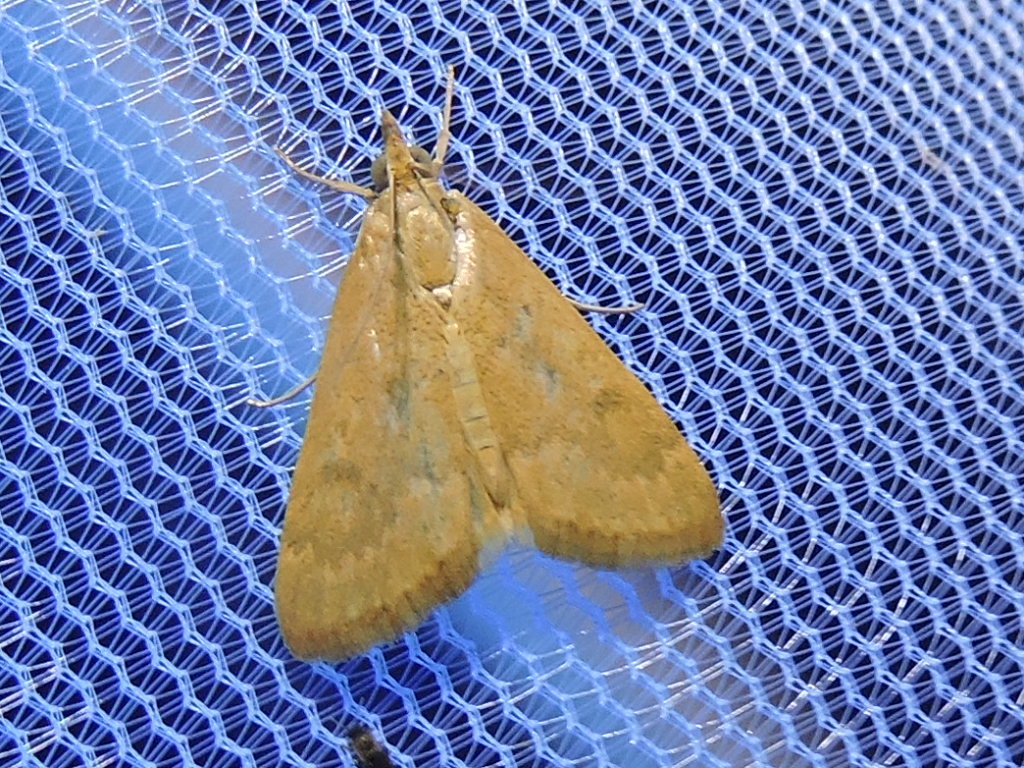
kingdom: Animalia
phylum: Arthropoda
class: Insecta
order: Lepidoptera
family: Crambidae
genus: Achyra
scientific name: Achyra rantalis
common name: Garden webworm
